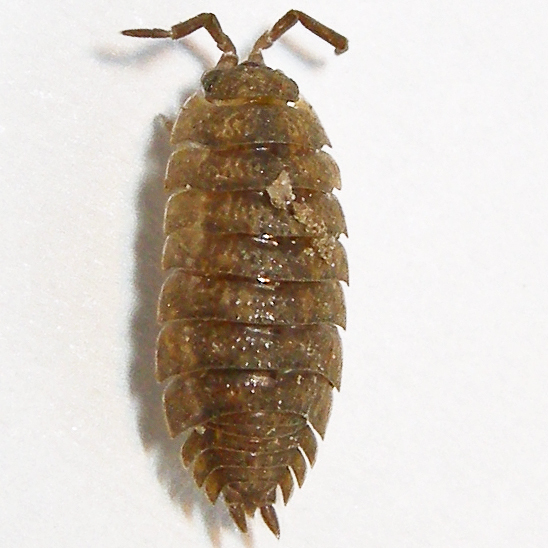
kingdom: Animalia
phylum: Arthropoda
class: Malacostraca
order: Isopoda
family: Porcellionidae
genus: Porcellio
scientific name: Porcellio scaber
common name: Common rough woodlouse
